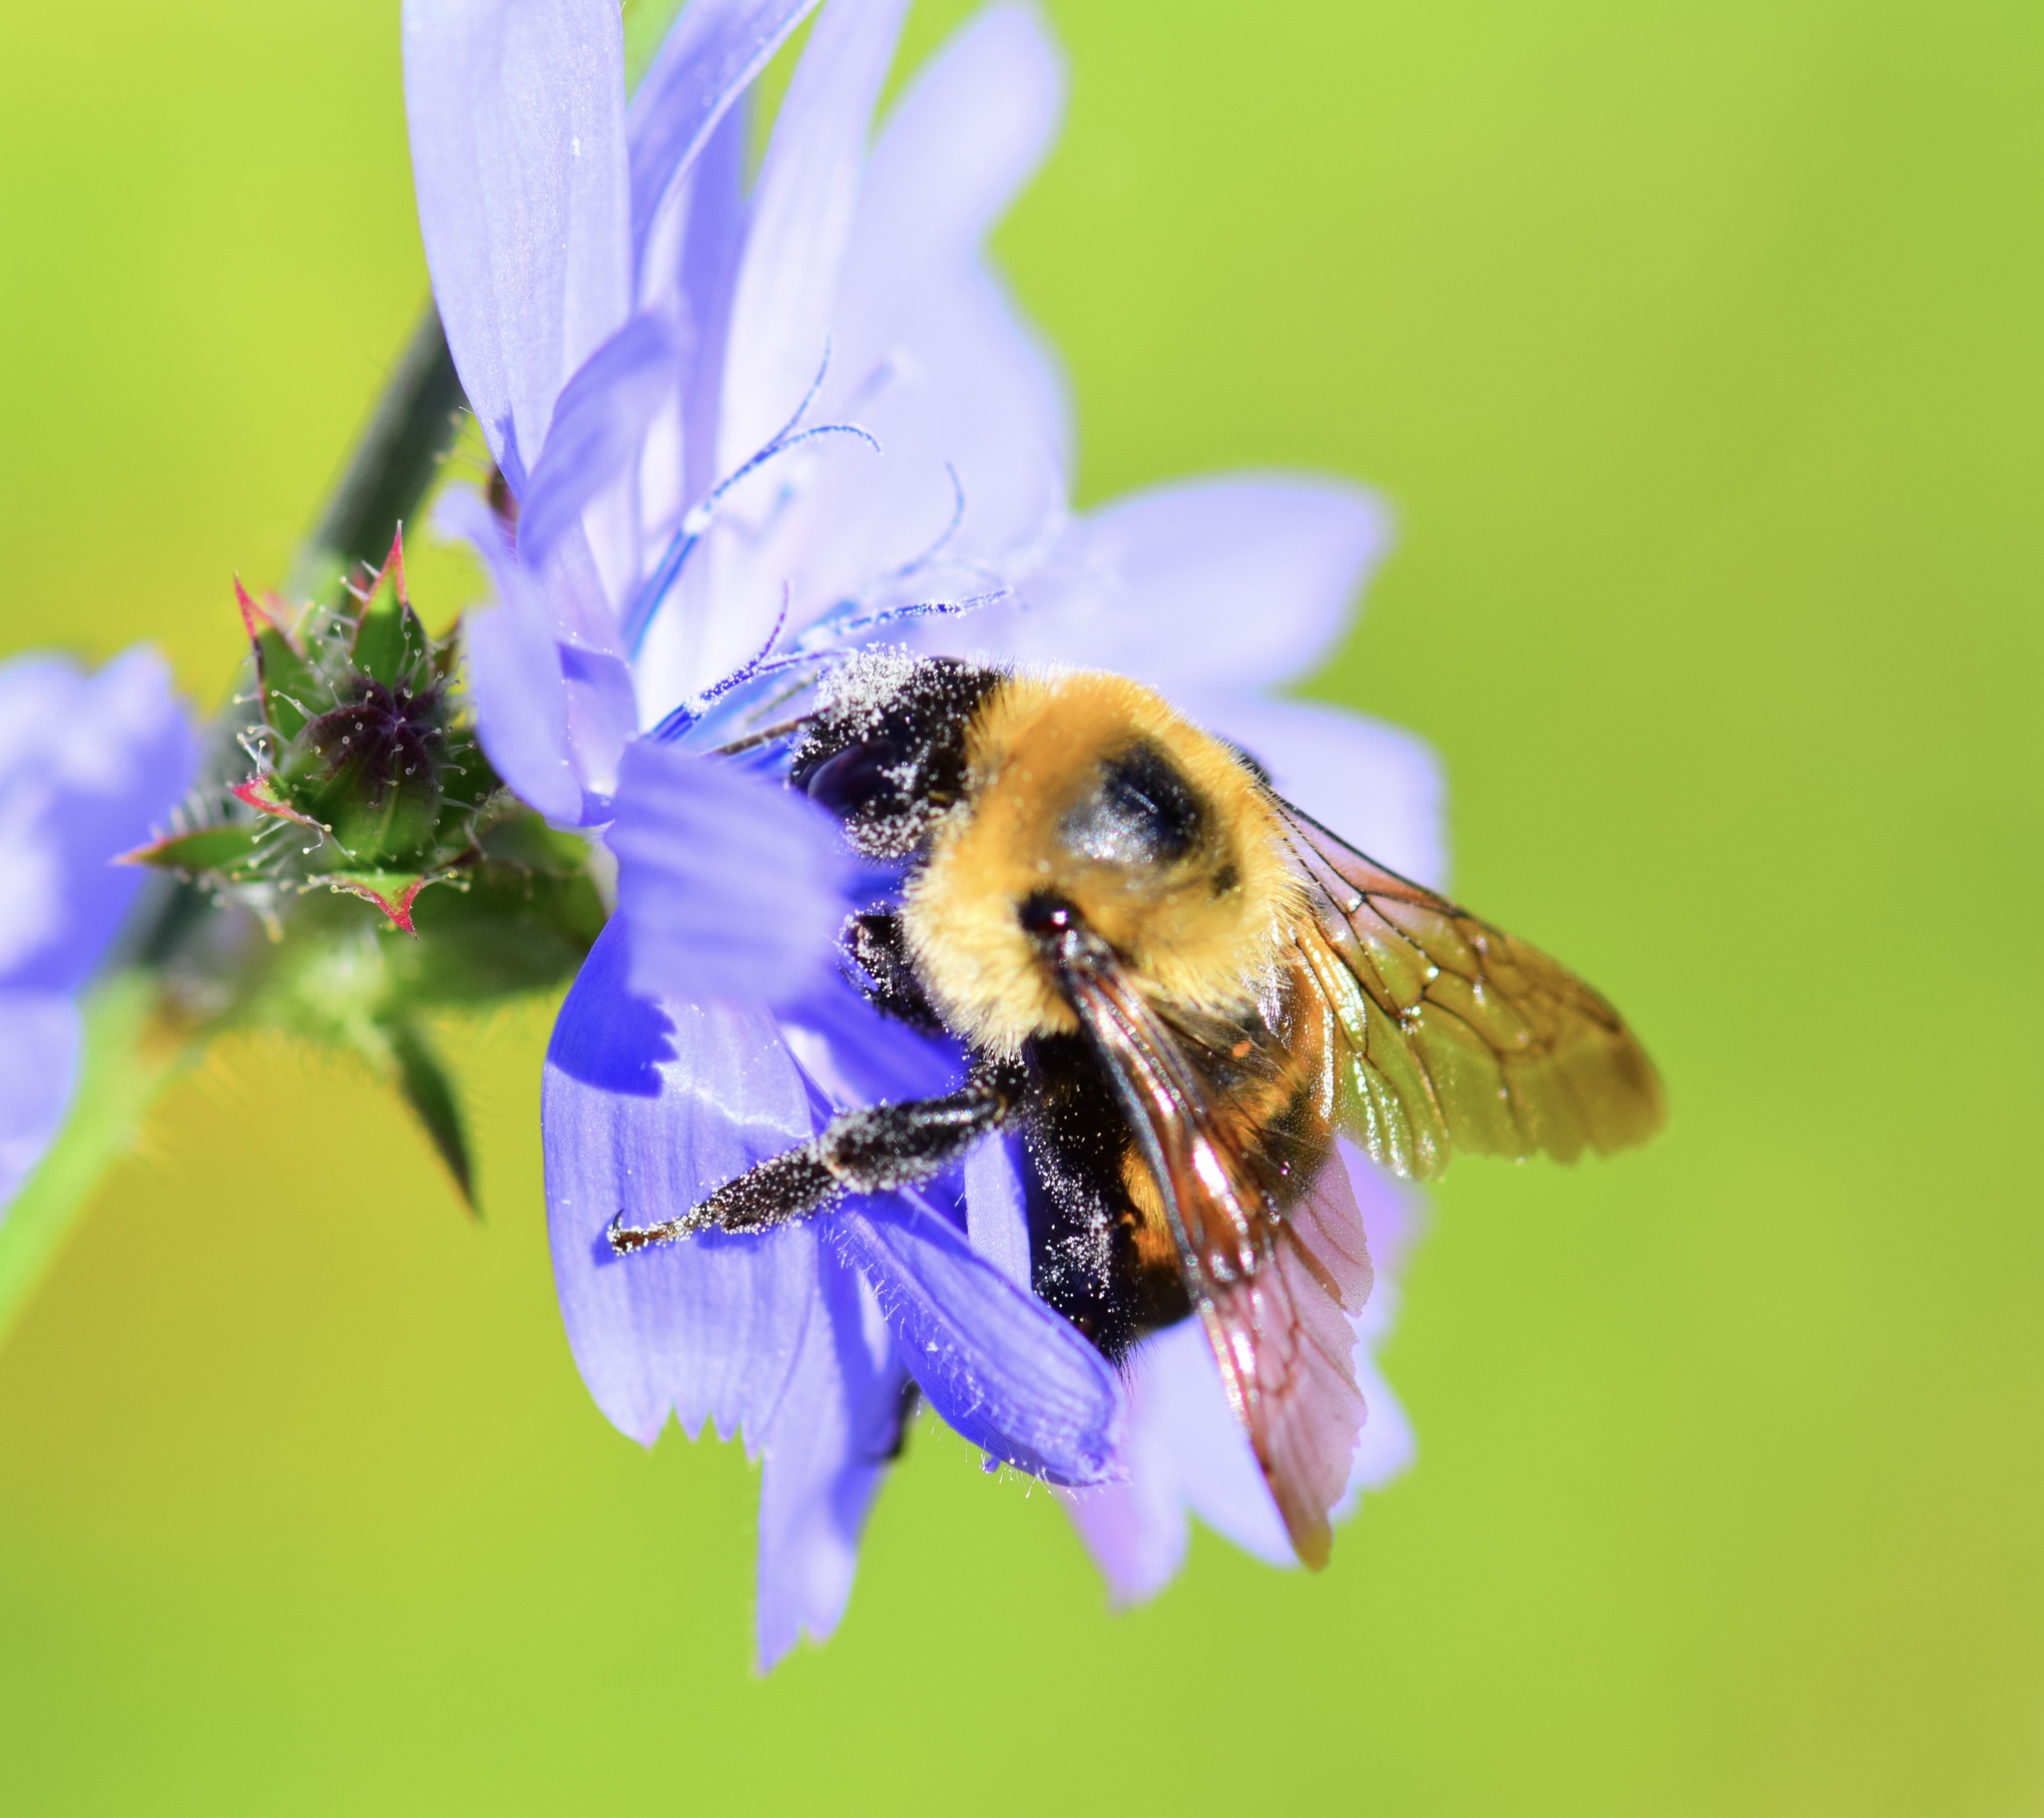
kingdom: Animalia
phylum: Arthropoda
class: Insecta
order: Hymenoptera
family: Apidae
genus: Bombus
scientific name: Bombus griseocollis
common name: Brown-belted bumble bee
